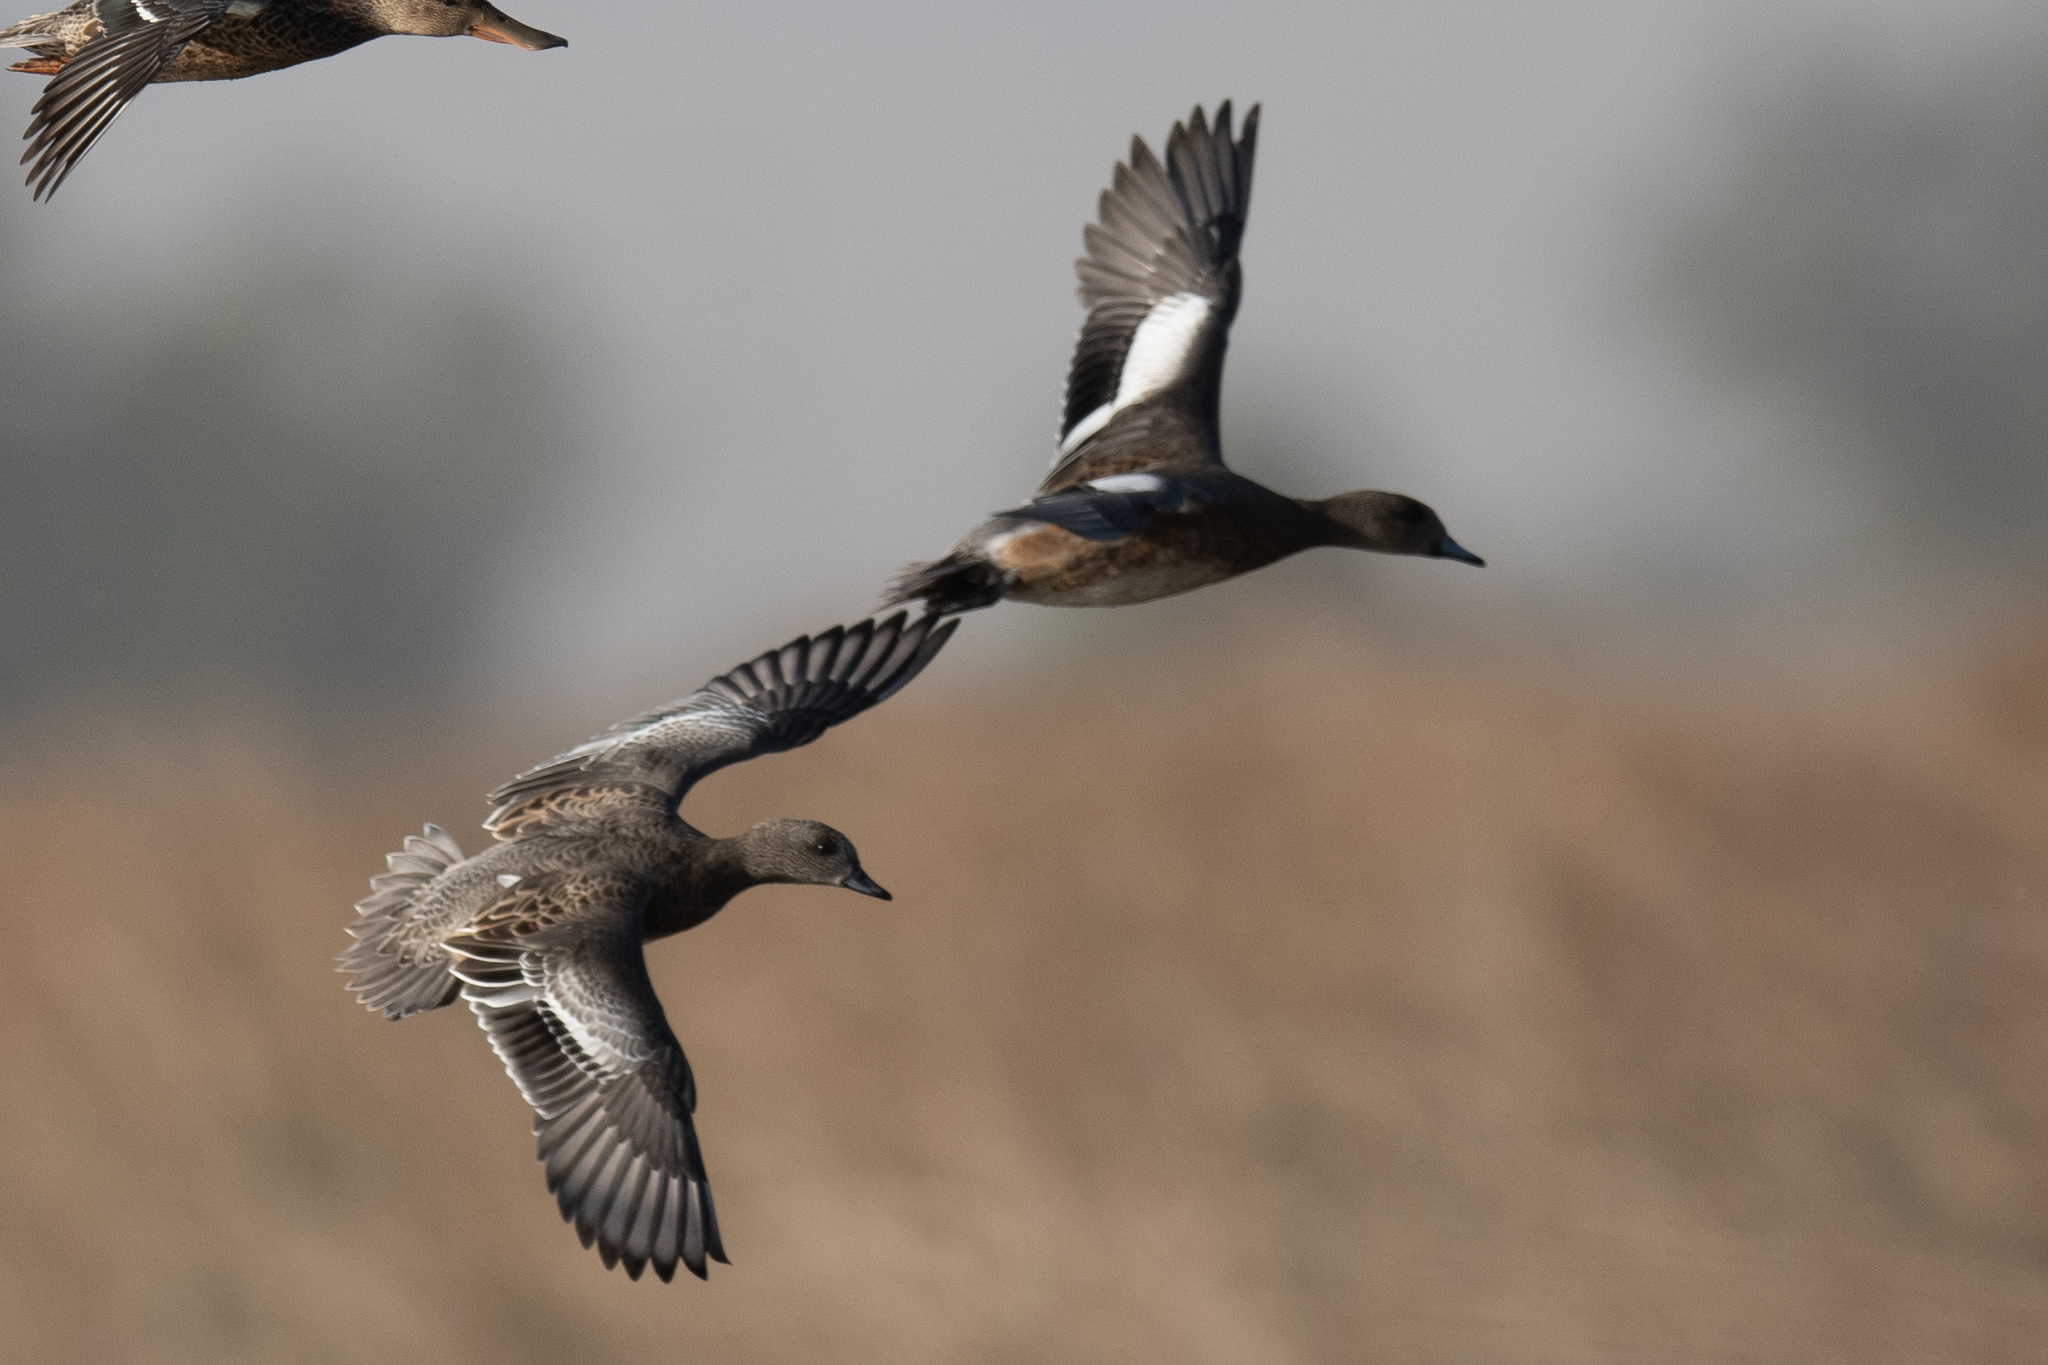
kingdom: Animalia
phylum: Chordata
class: Aves
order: Anseriformes
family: Anatidae
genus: Mareca
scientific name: Mareca strepera
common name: Gadwall
